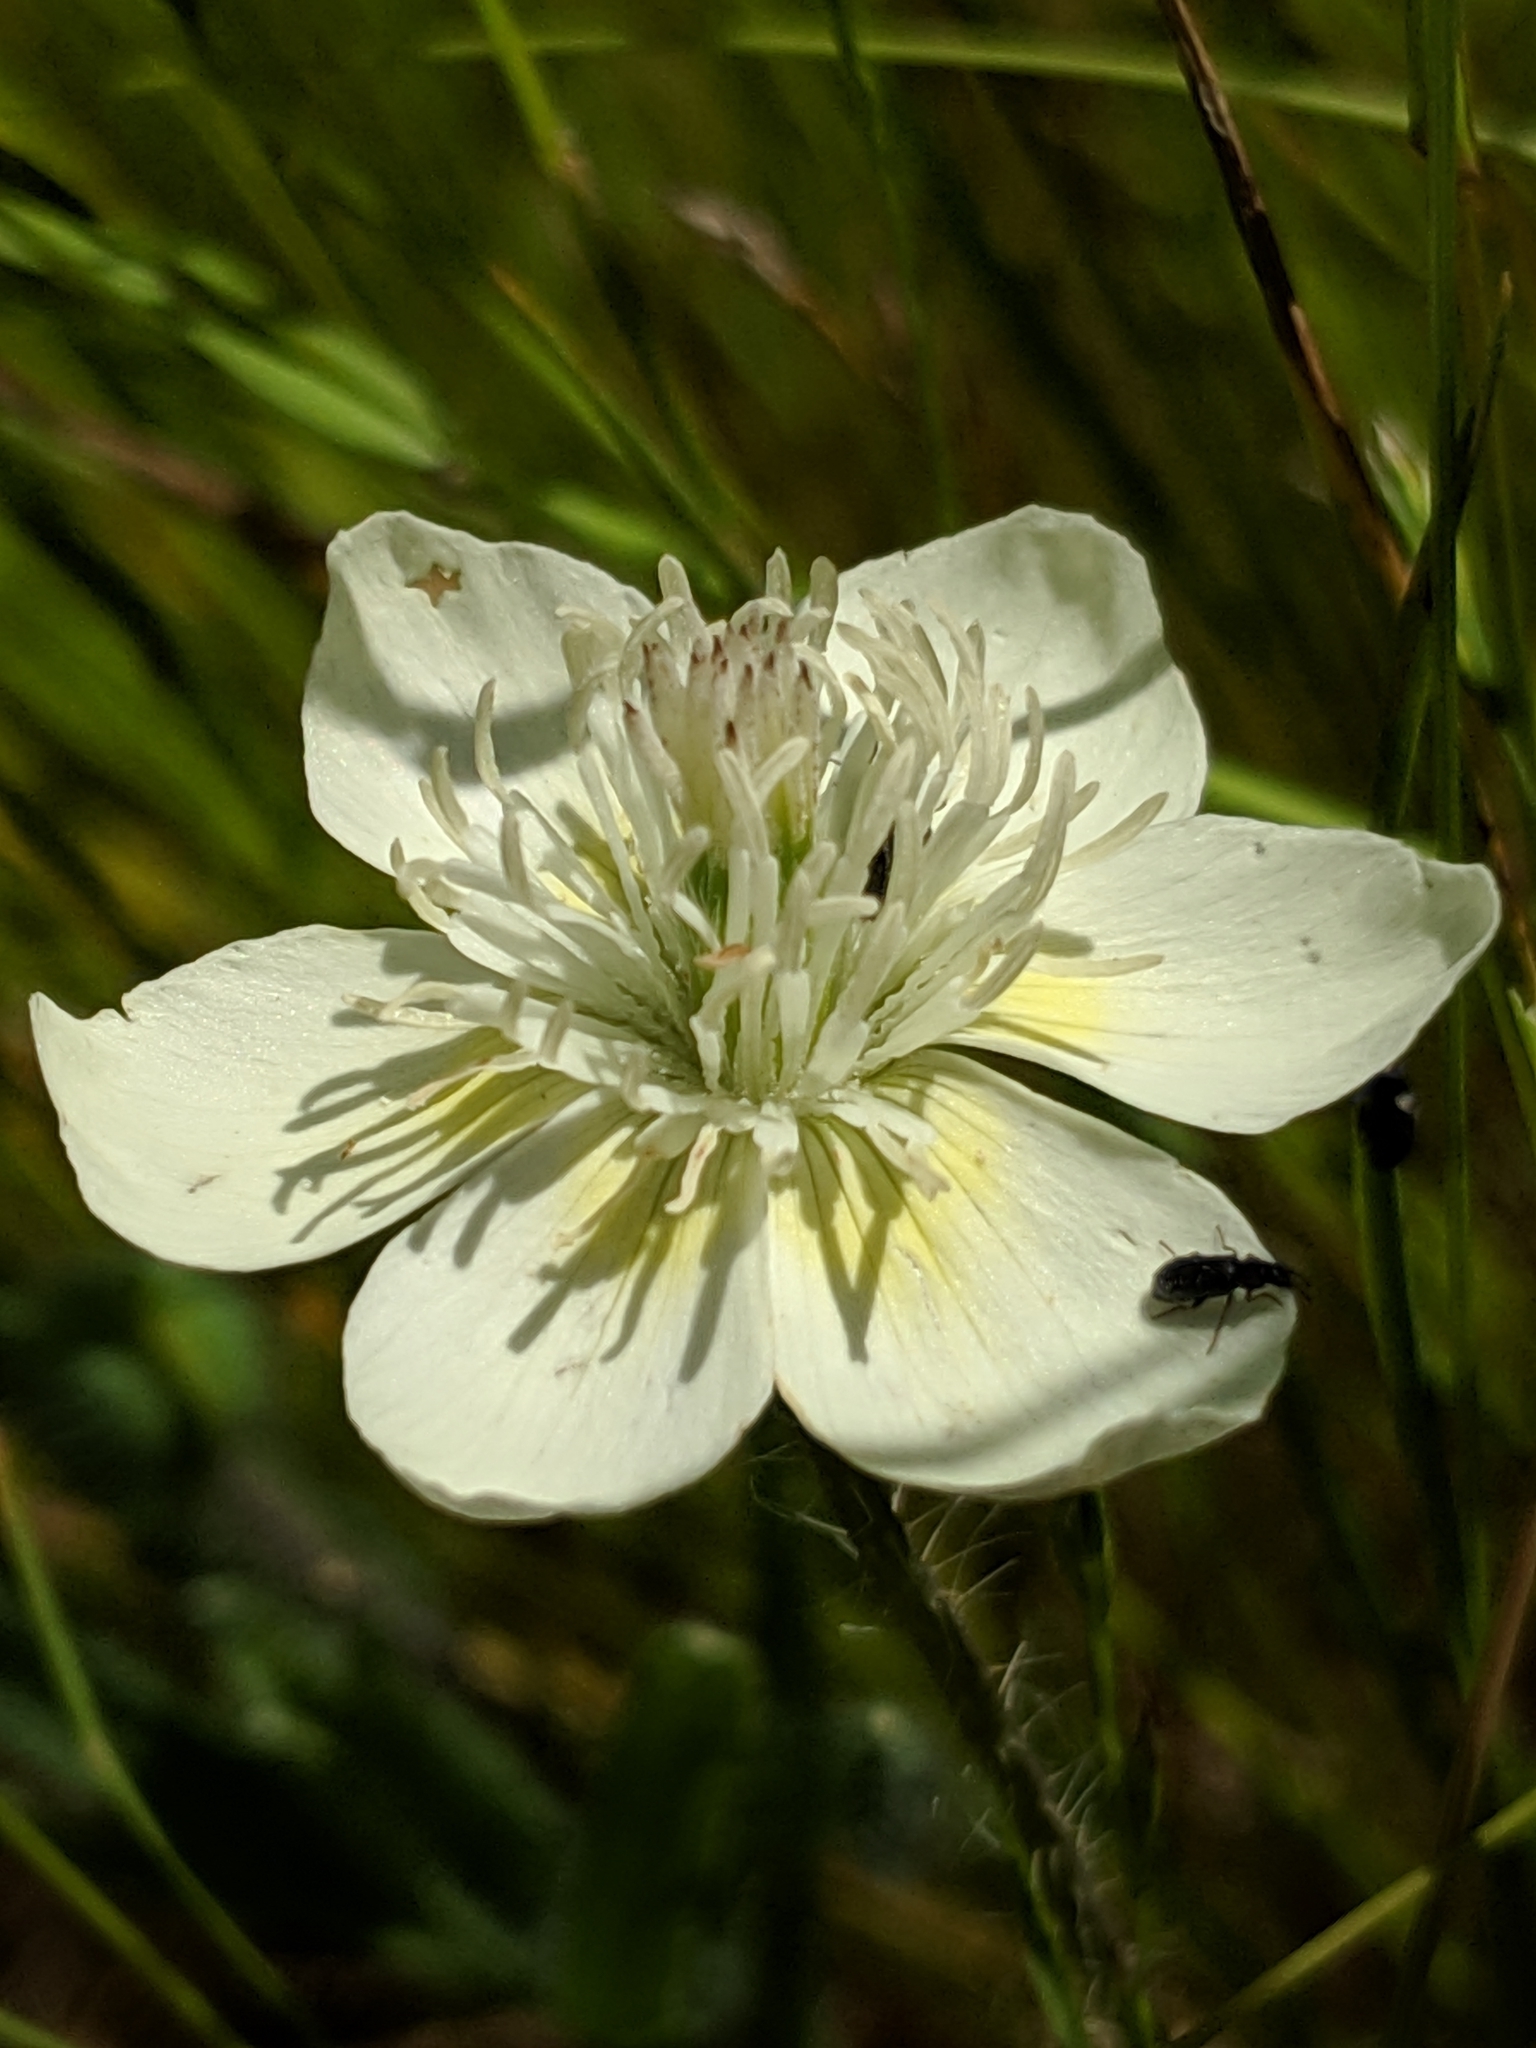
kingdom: Plantae
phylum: Tracheophyta
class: Magnoliopsida
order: Ranunculales
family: Papaveraceae
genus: Platystemon
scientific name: Platystemon californicus
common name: Cream-cups
